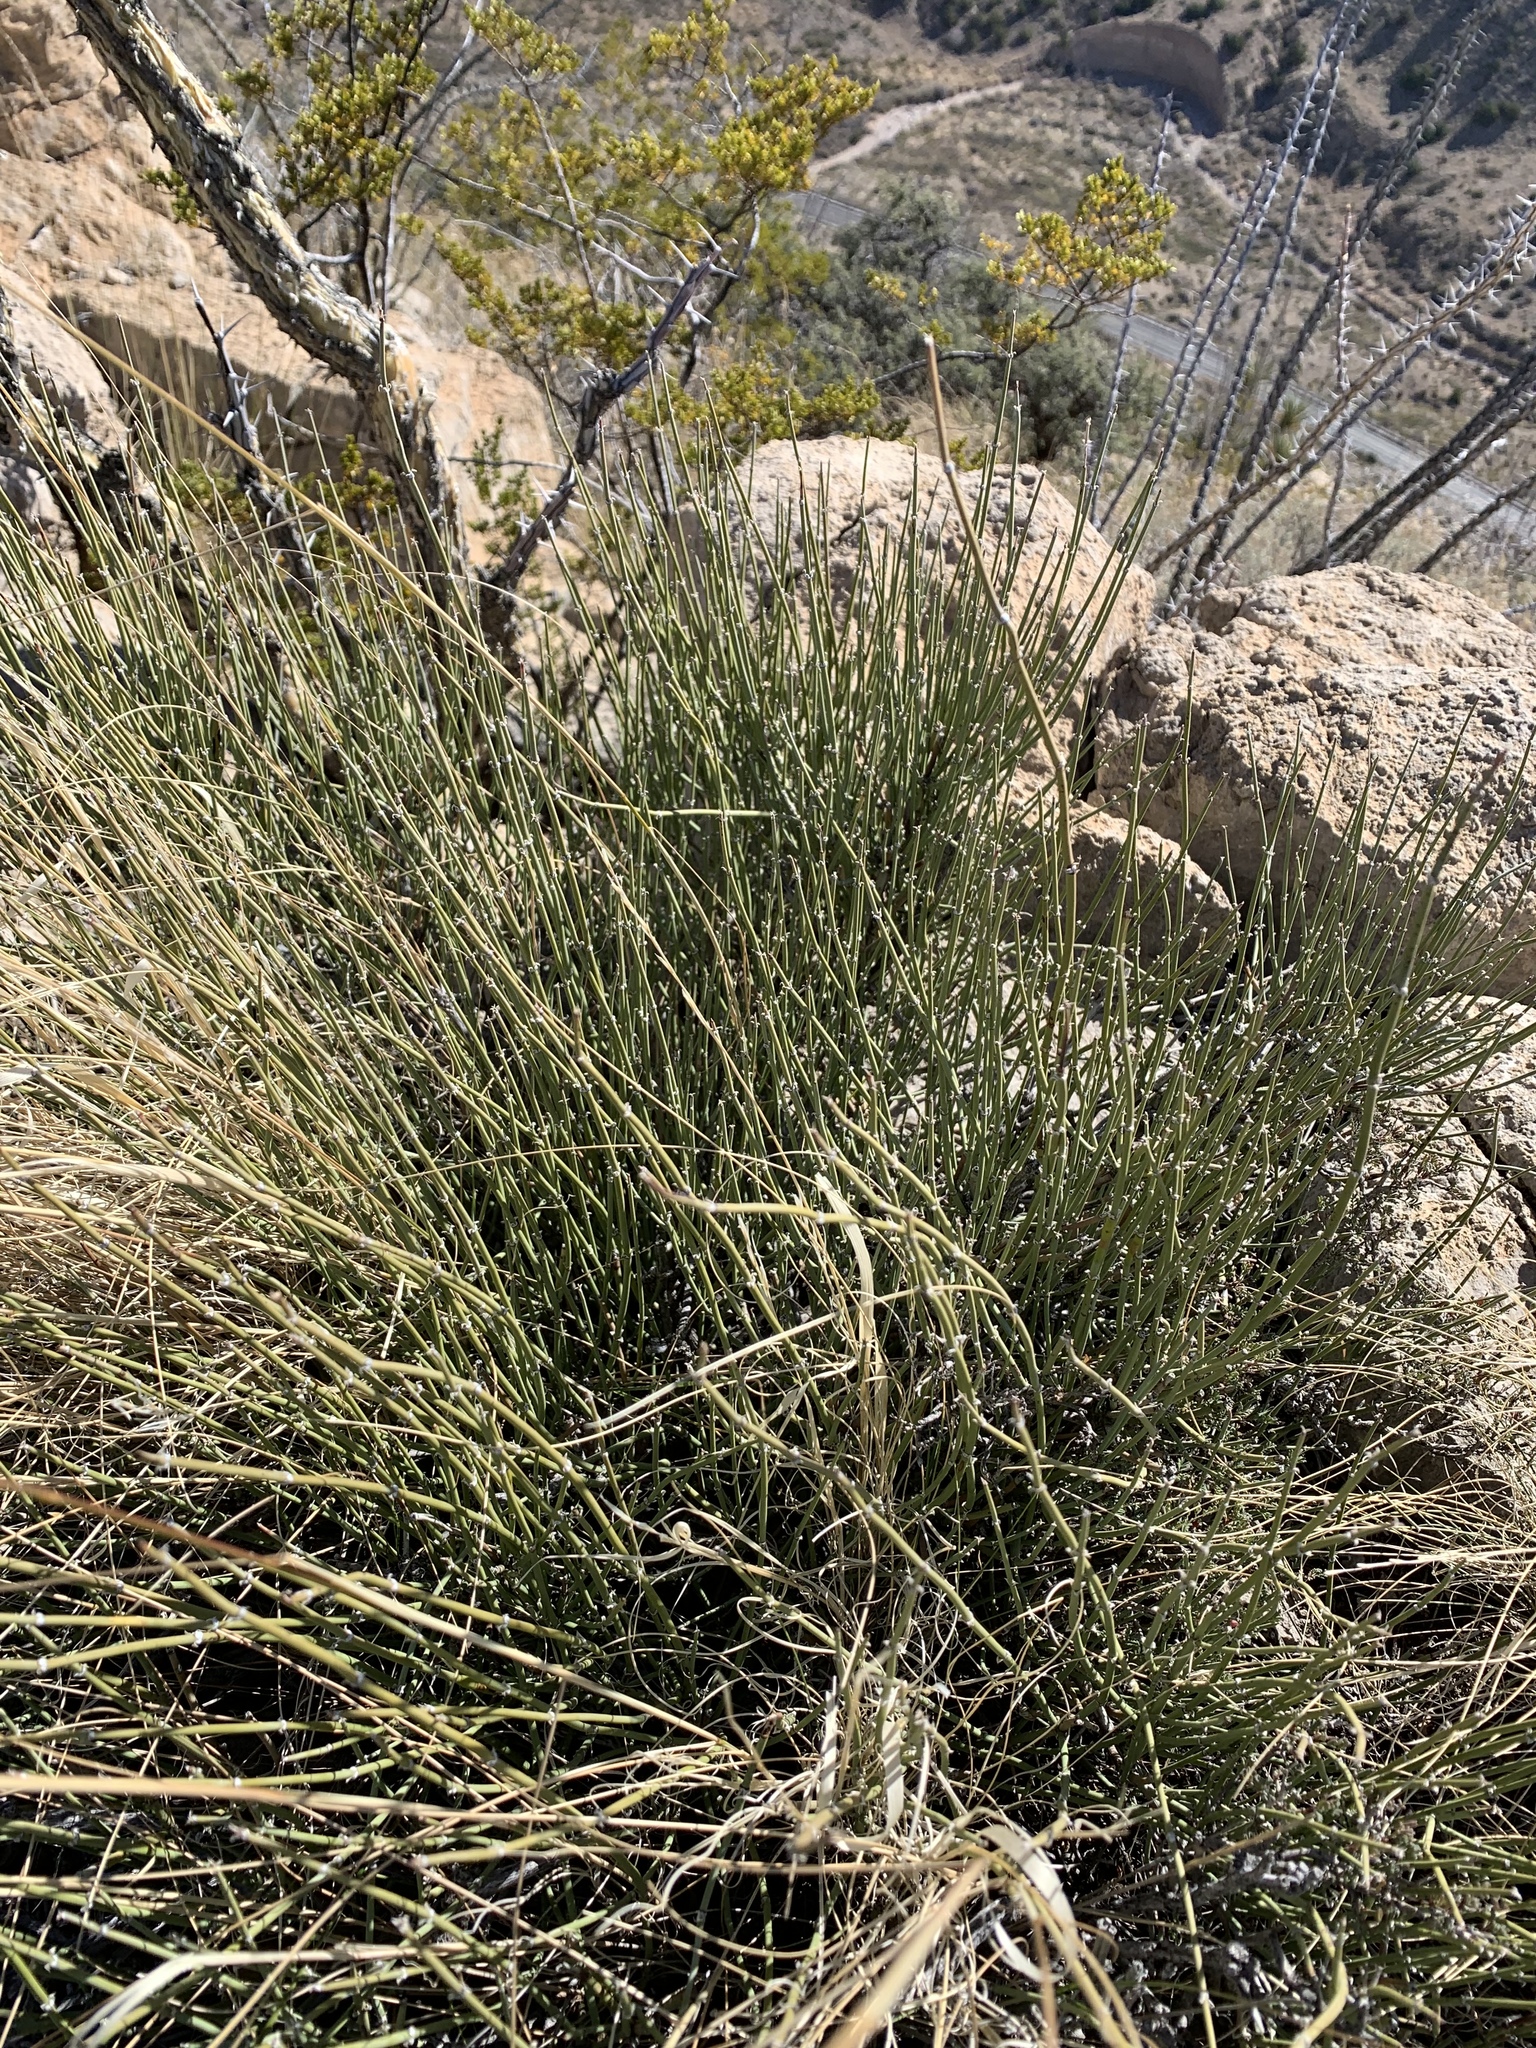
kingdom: Plantae
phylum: Tracheophyta
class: Gnetopsida
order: Ephedrales
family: Ephedraceae
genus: Ephedra
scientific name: Ephedra trifurca
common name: Mexican-tea
